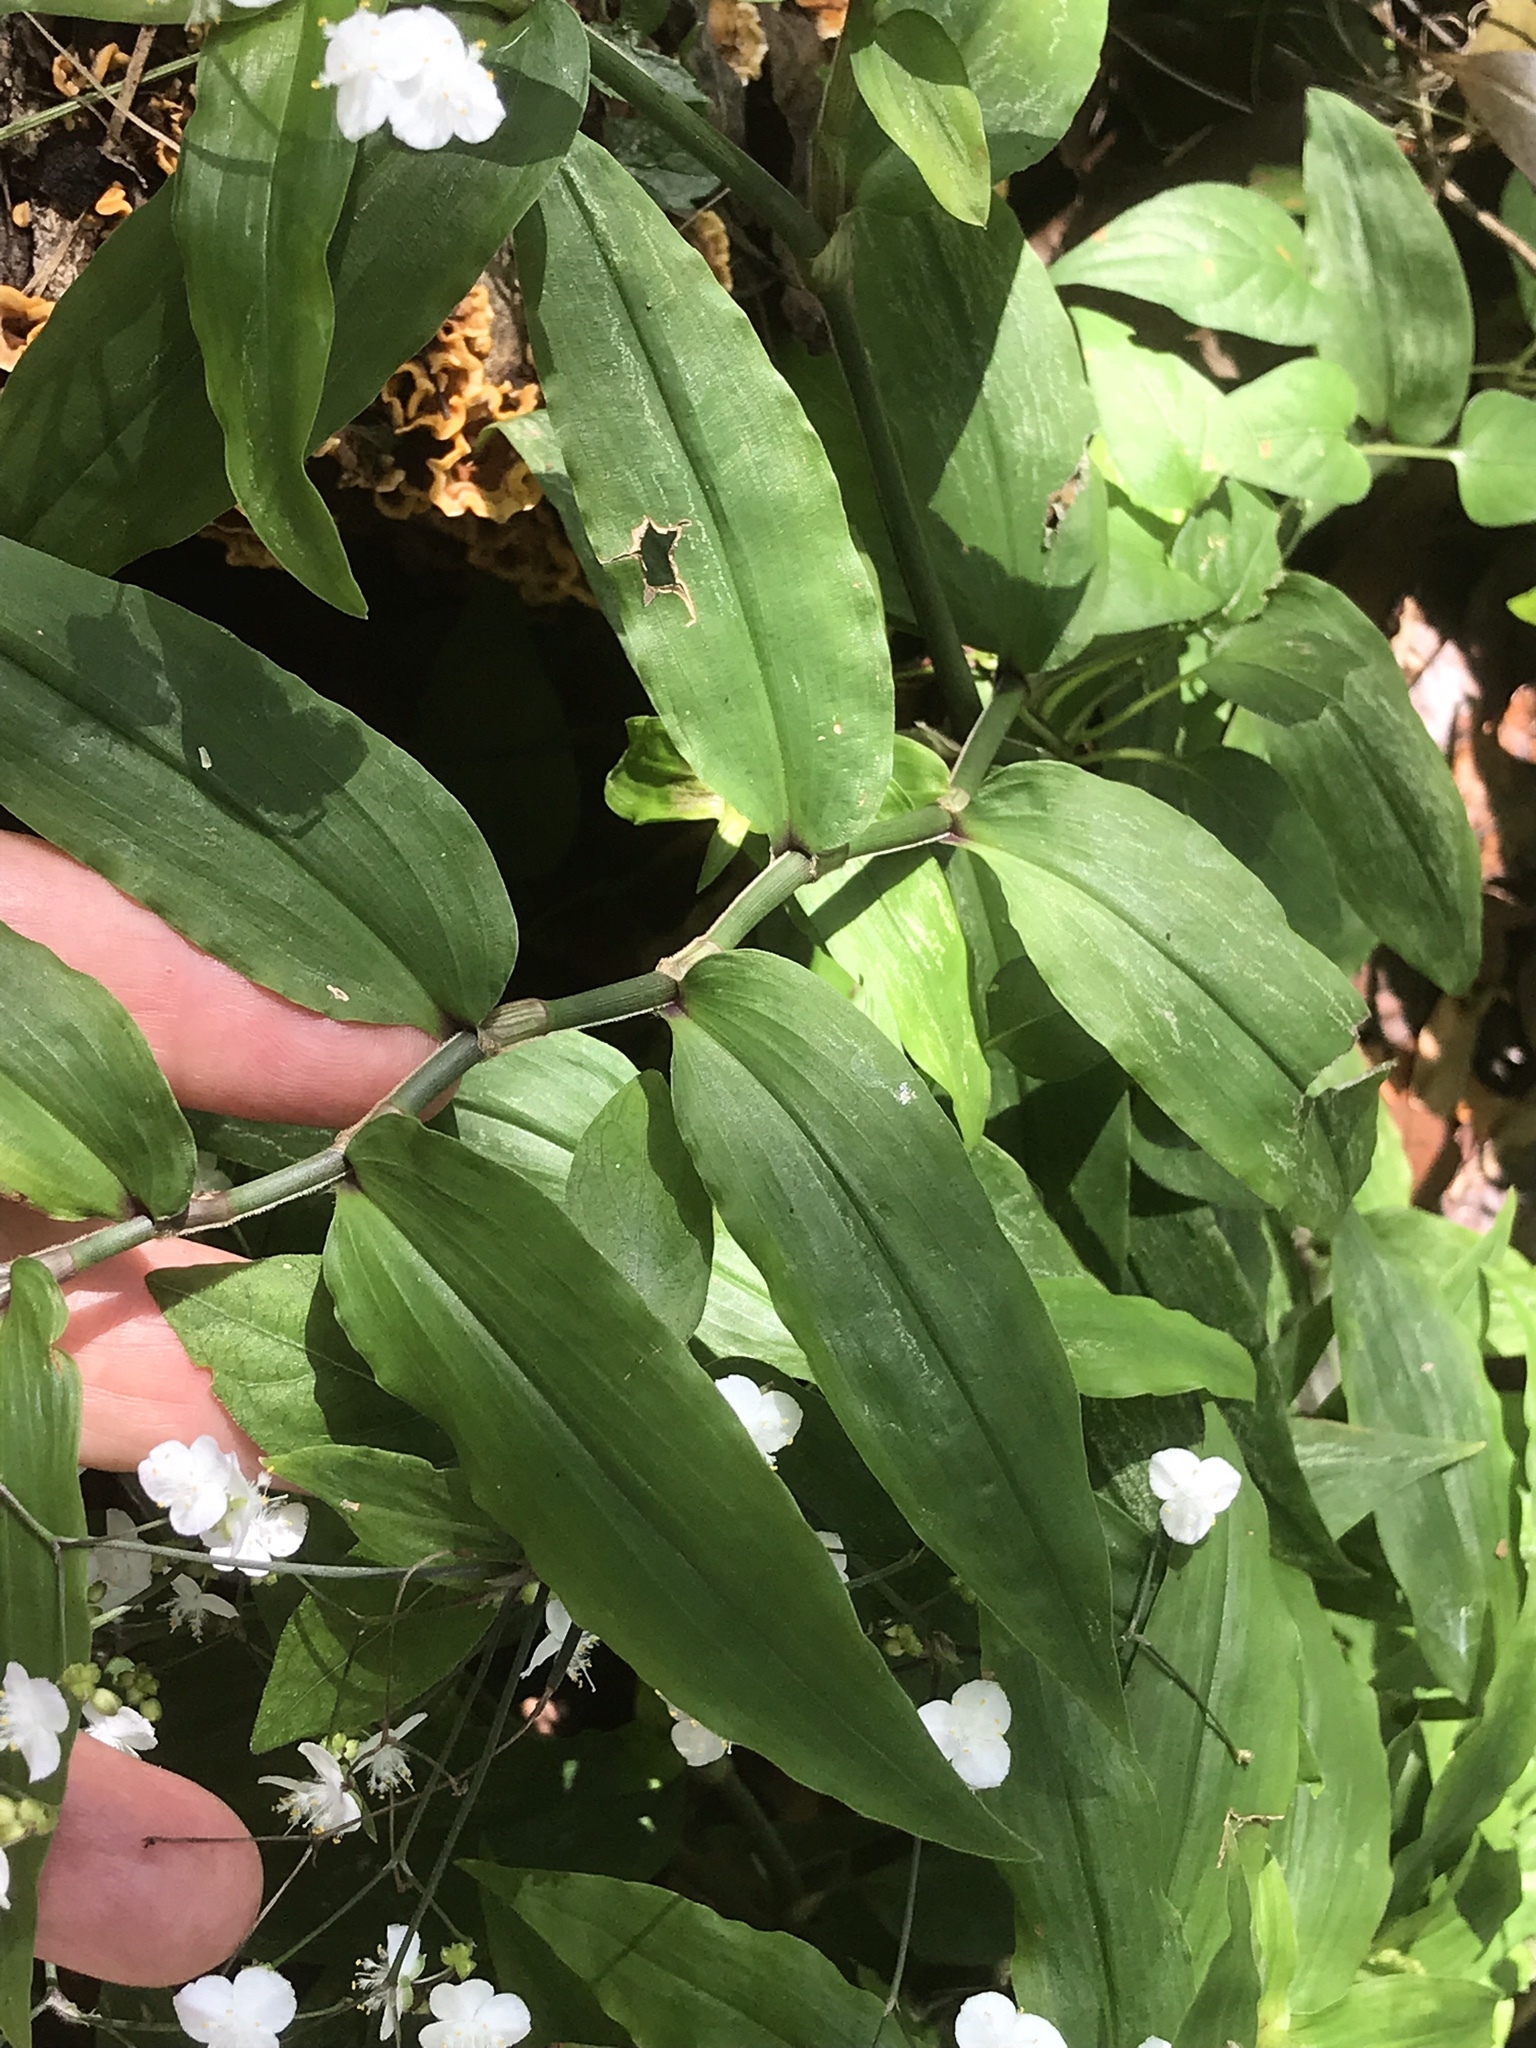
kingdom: Plantae
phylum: Tracheophyta
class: Liliopsida
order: Commelinales
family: Commelinaceae
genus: Gibasis
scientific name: Gibasis pellucida
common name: Dotted bridalveil
